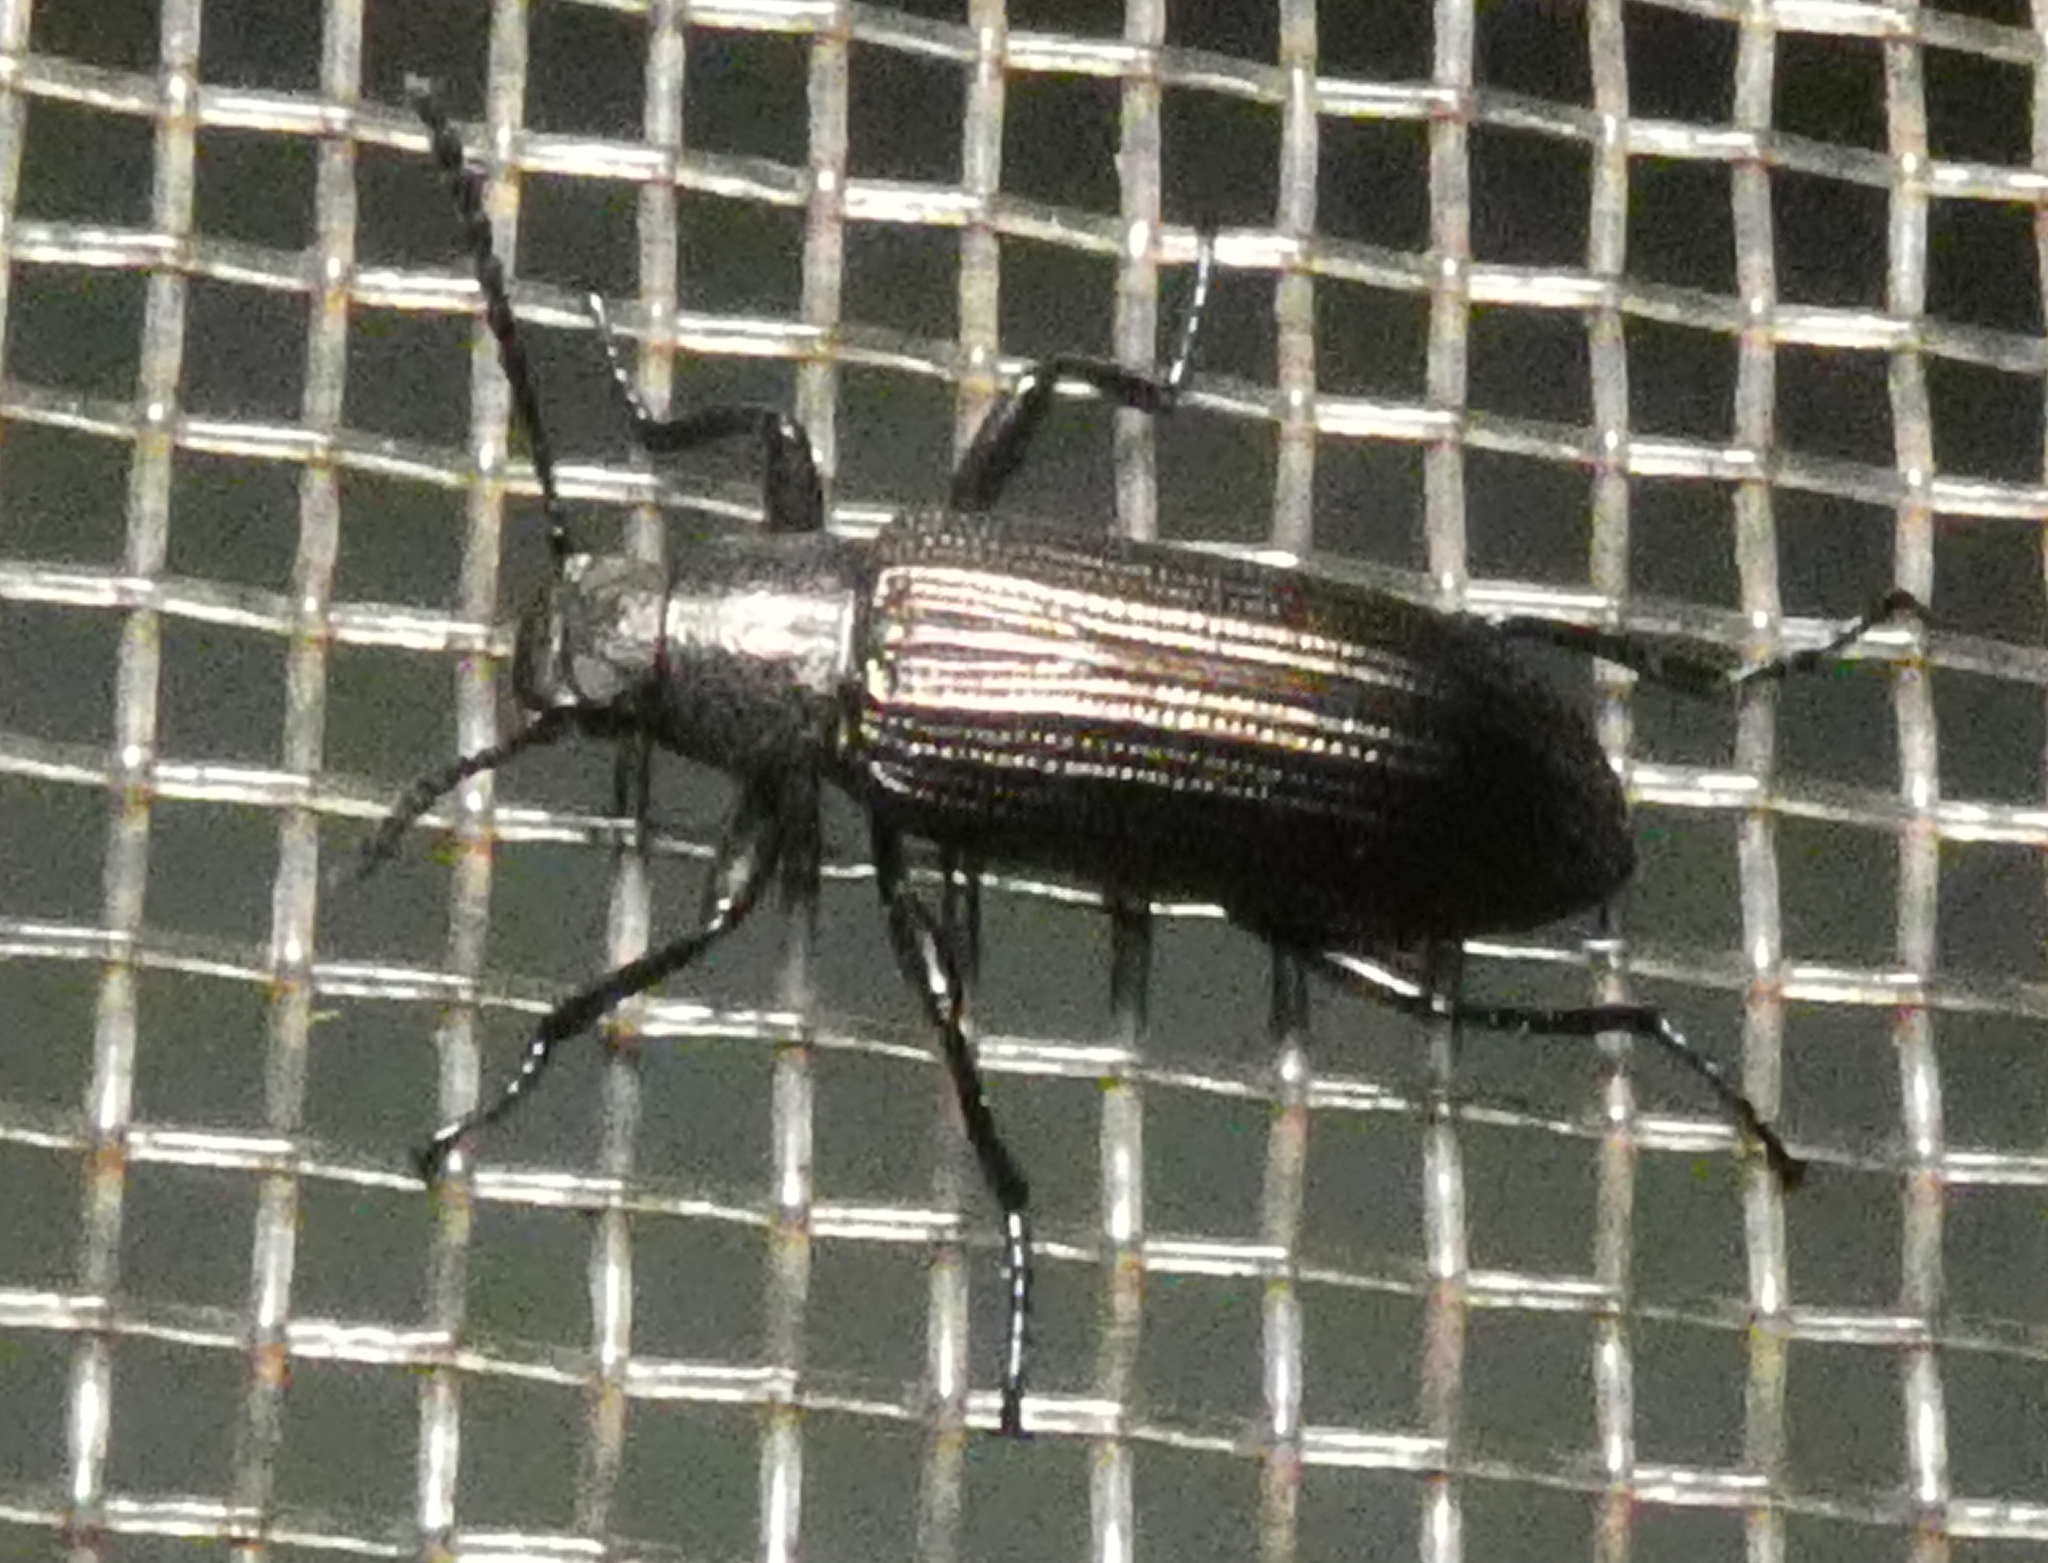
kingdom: Animalia
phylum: Arthropoda
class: Insecta
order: Coleoptera
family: Tenebrionidae
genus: Strongylium
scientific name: Strongylium
